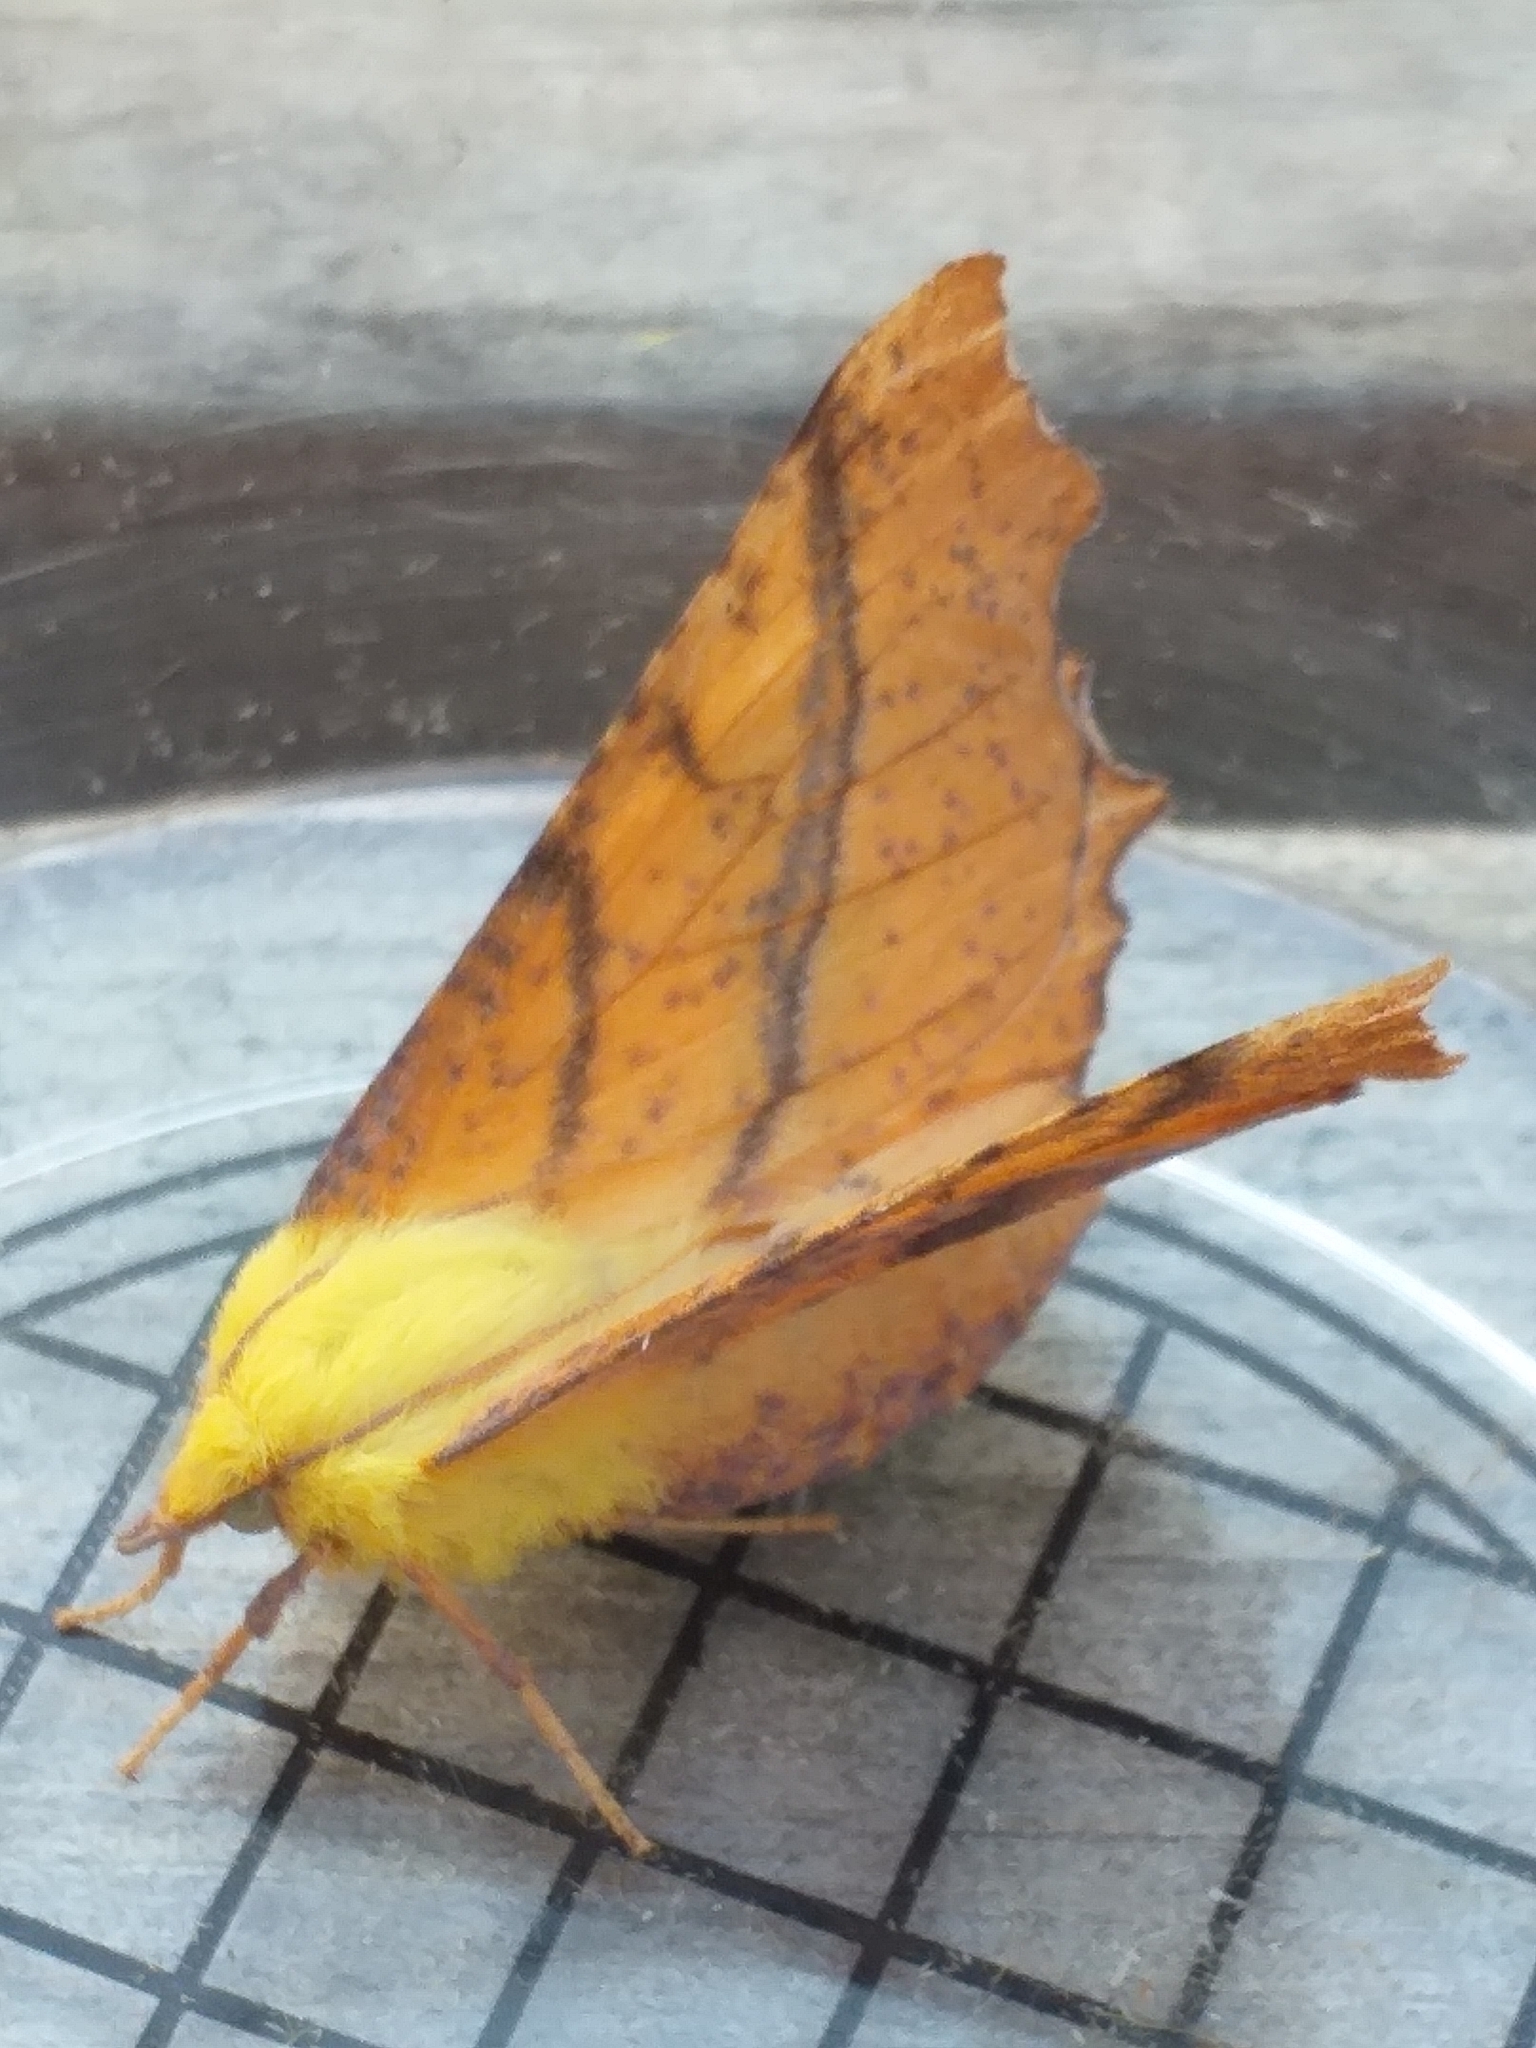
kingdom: Animalia
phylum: Arthropoda
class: Insecta
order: Lepidoptera
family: Geometridae
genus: Ennomos
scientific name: Ennomos alniaria
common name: Canary-shouldered thorn
